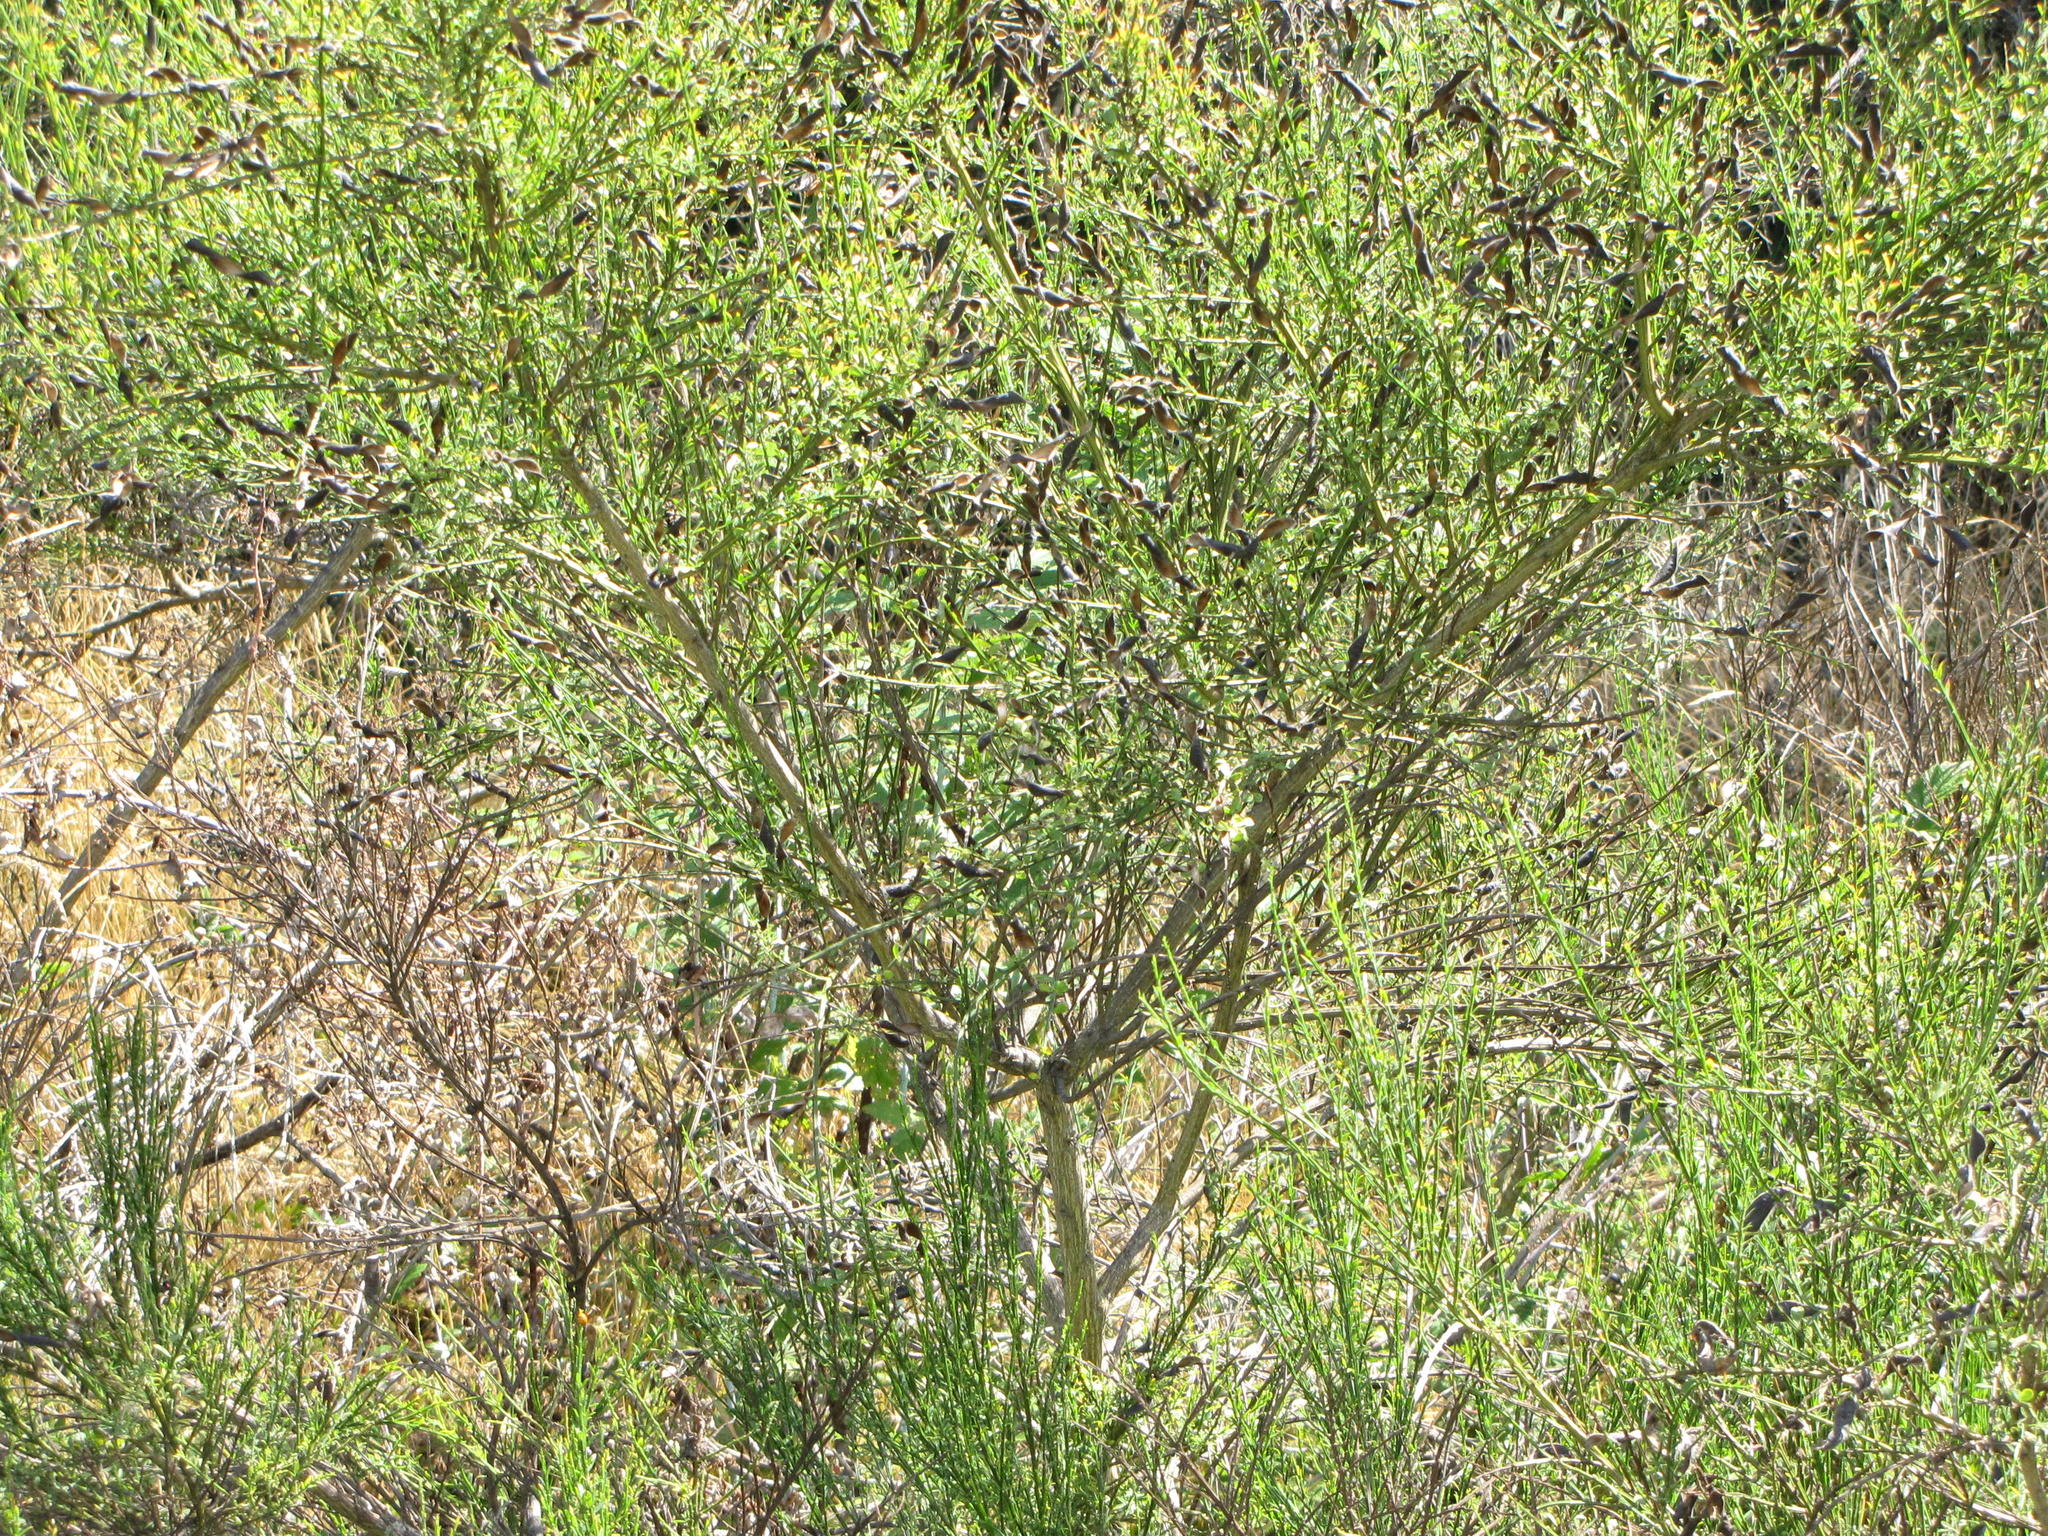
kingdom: Plantae
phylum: Tracheophyta
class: Magnoliopsida
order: Fabales
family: Fabaceae
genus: Cytisus
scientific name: Cytisus scoparius
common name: Scotch broom
